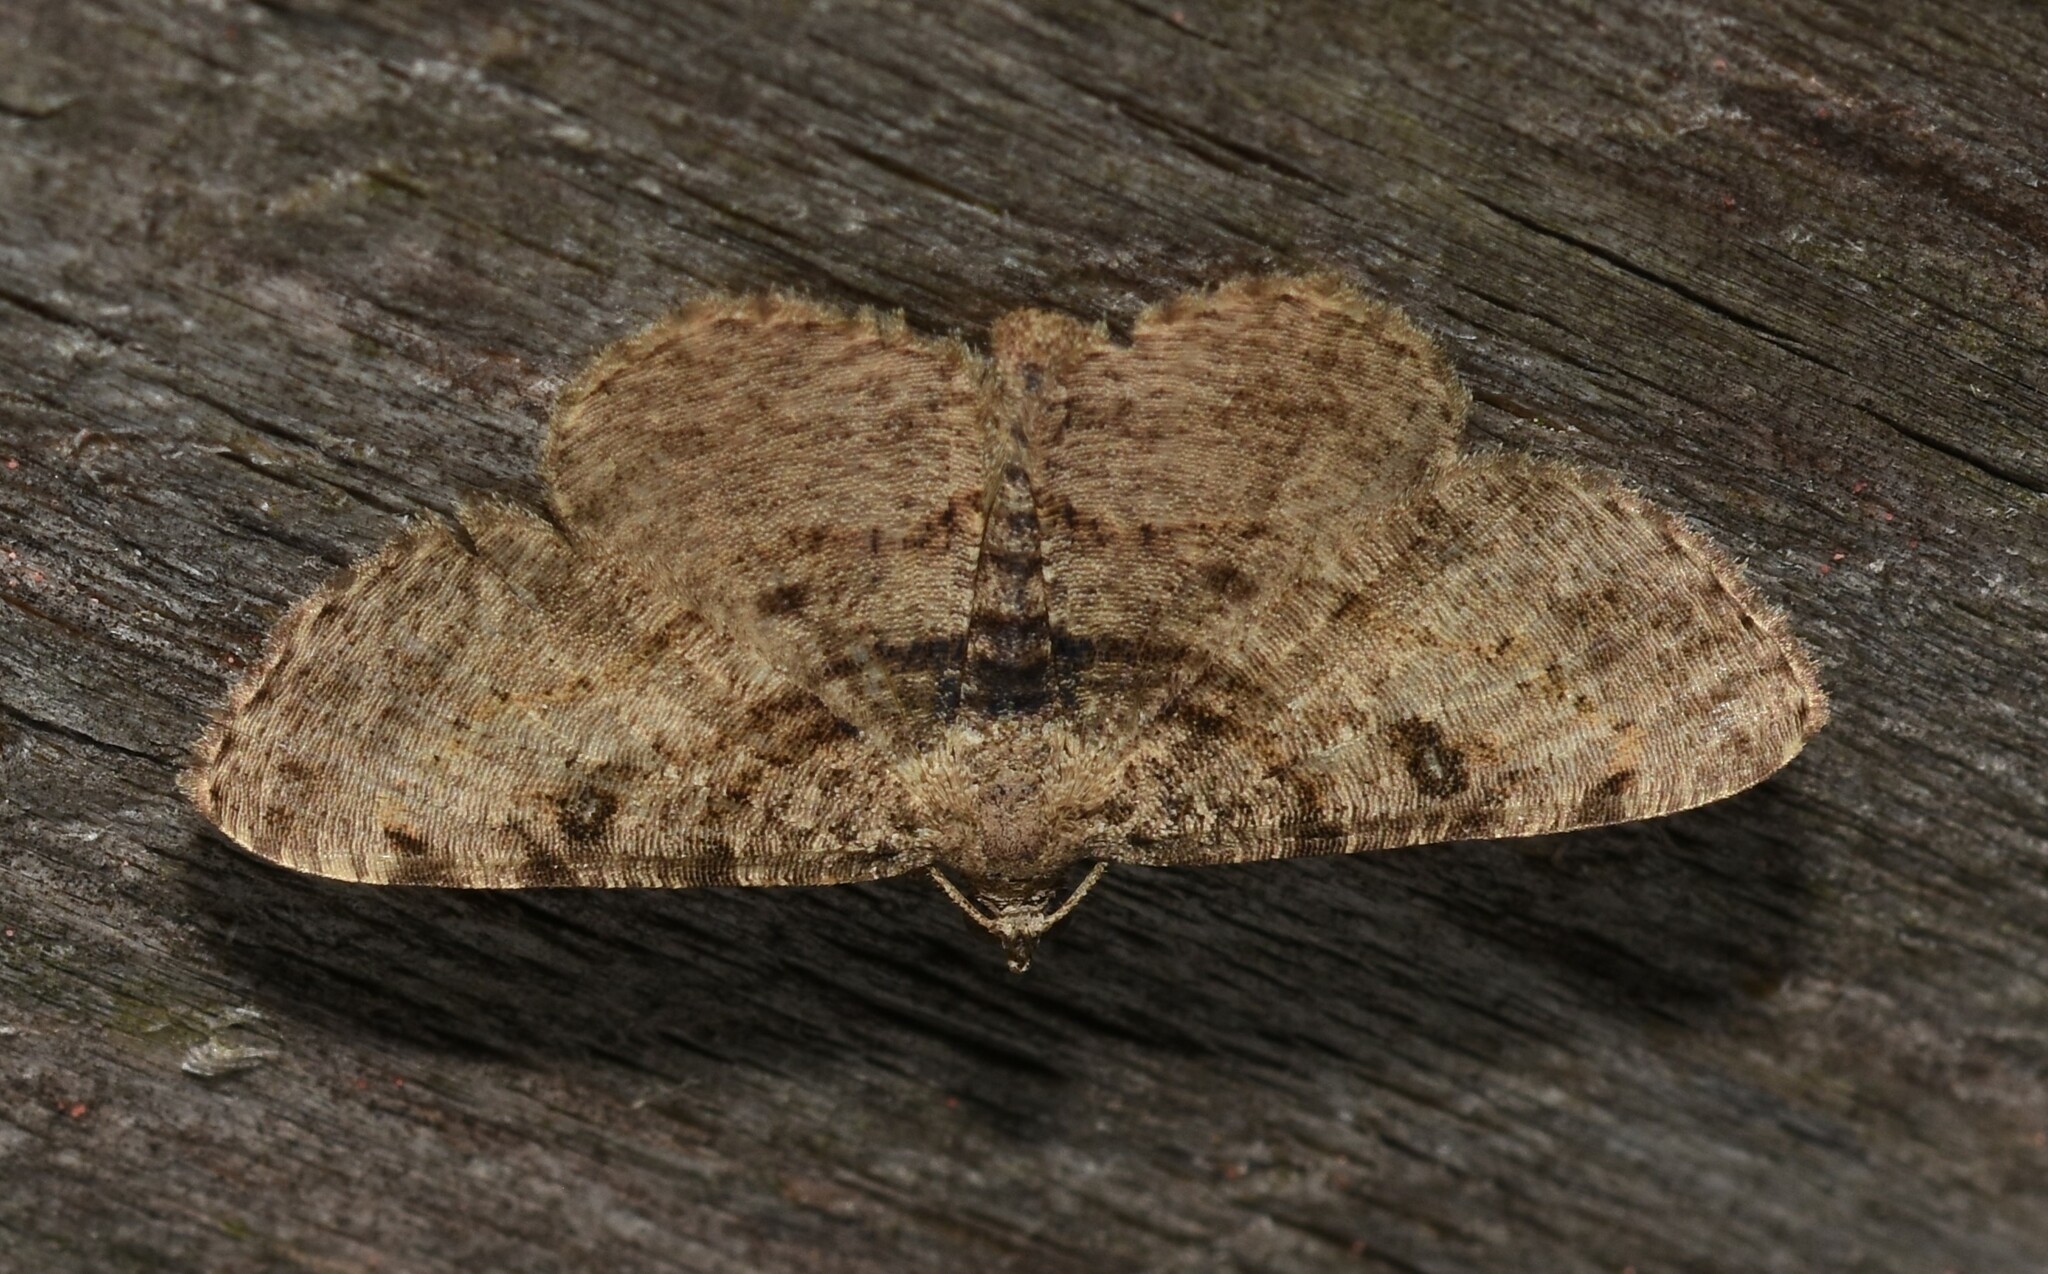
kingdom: Animalia
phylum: Arthropoda
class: Insecta
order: Lepidoptera
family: Geometridae
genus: Digrammia
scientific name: Digrammia gnophosaria
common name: Hollow-spotted angle
